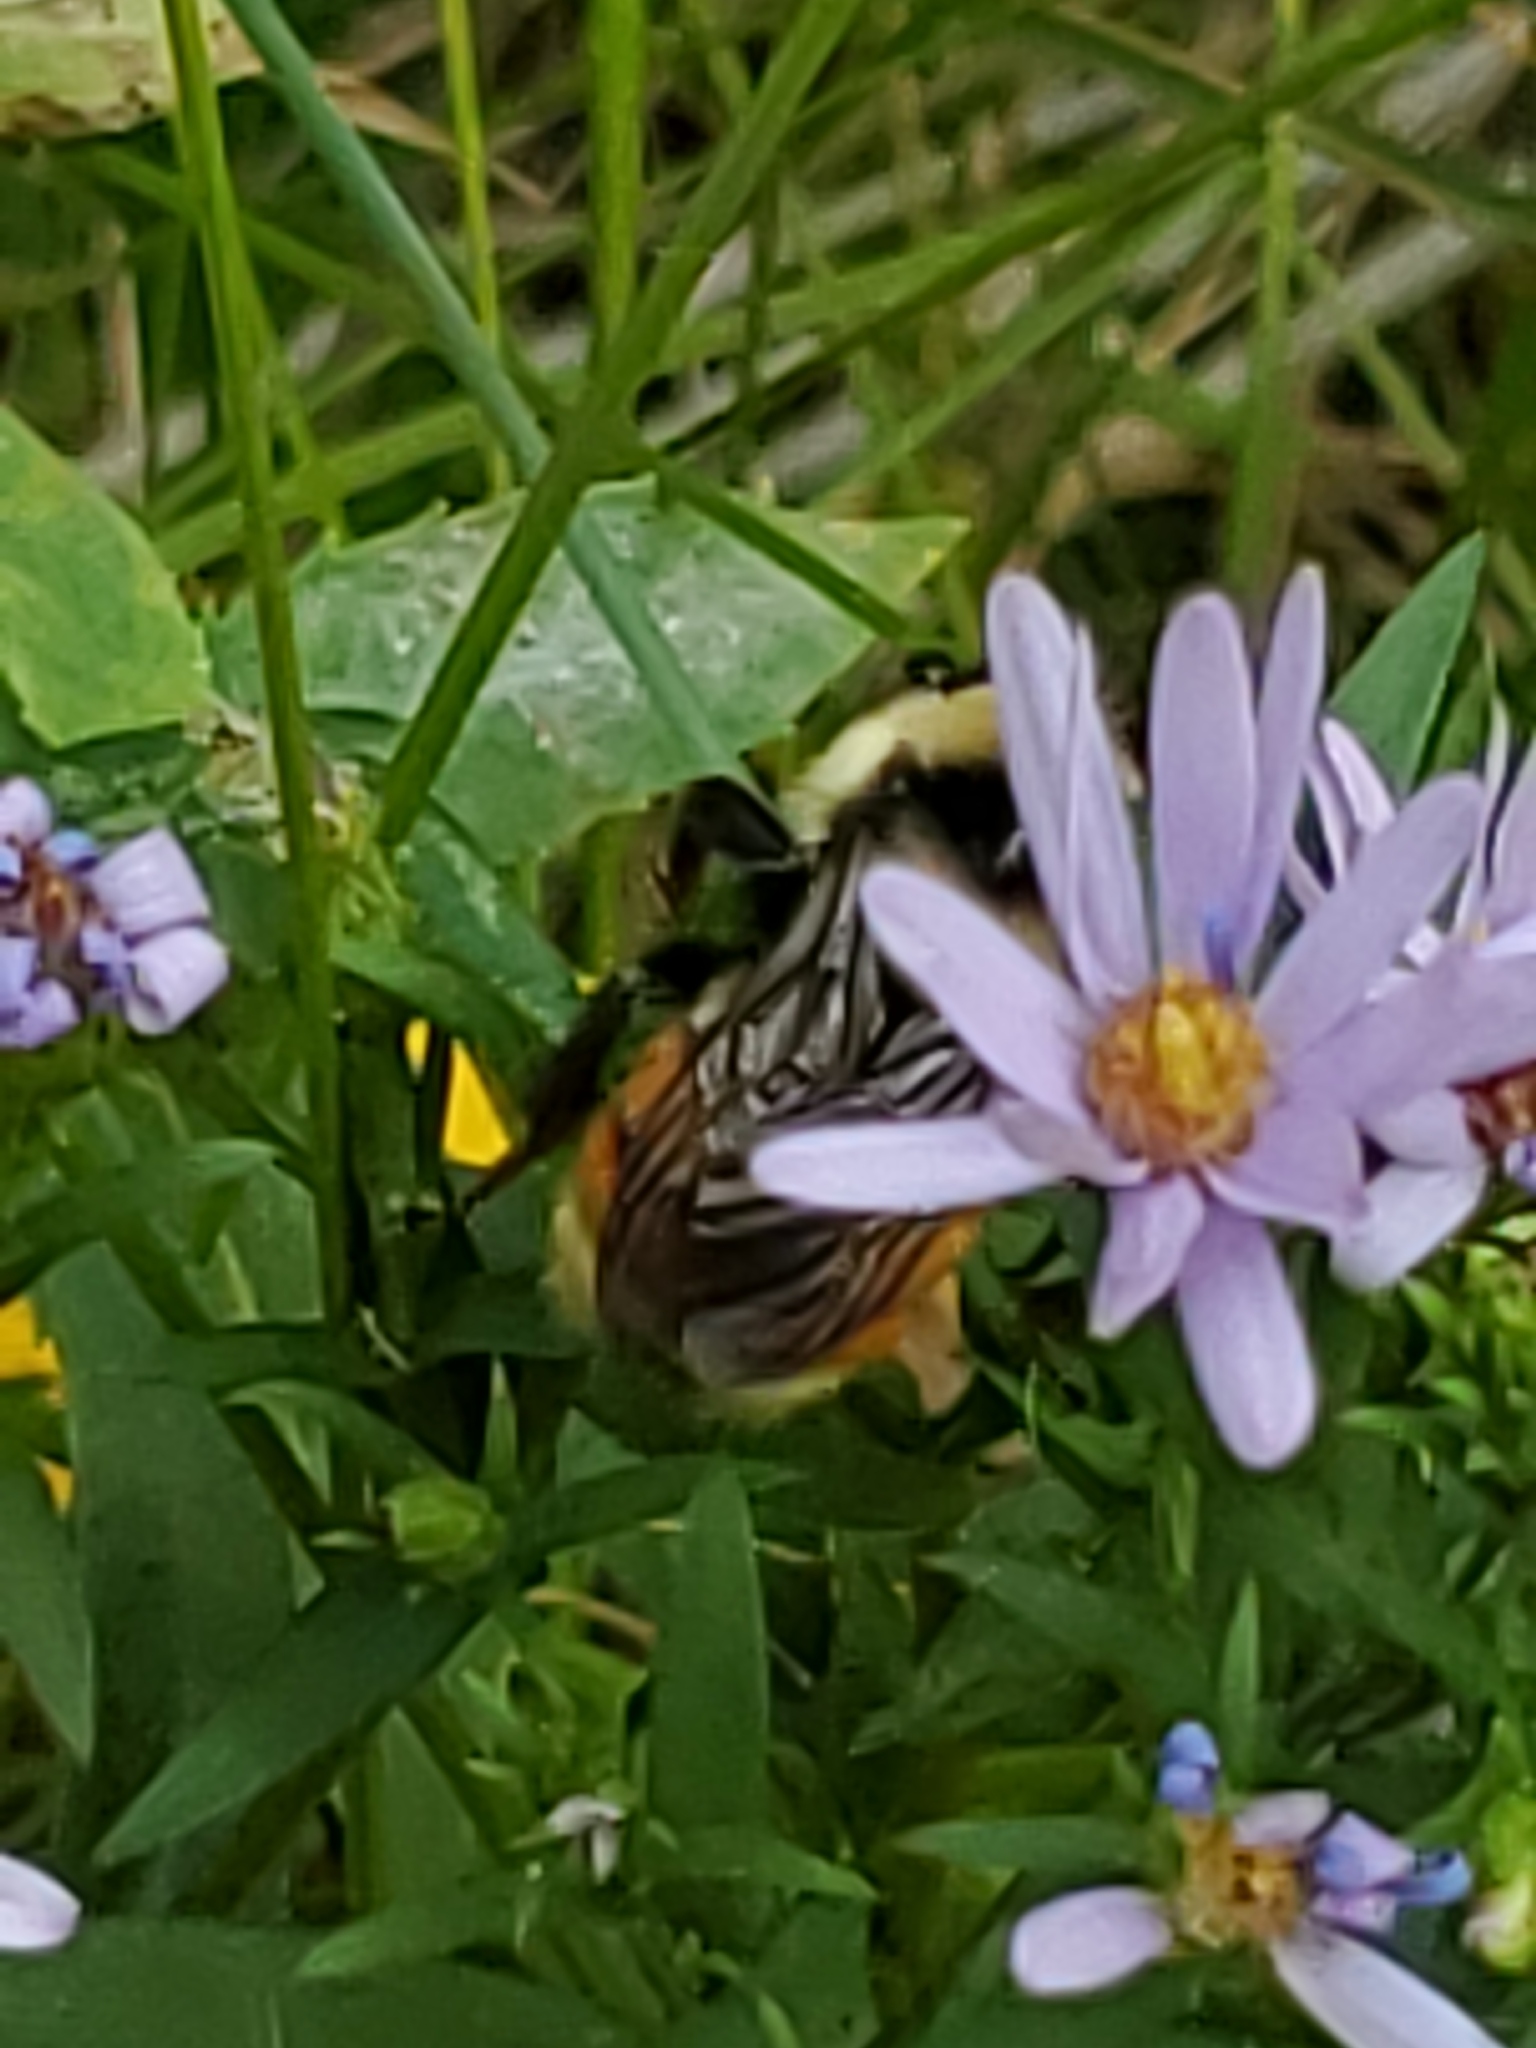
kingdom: Animalia
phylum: Arthropoda
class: Insecta
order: Hymenoptera
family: Apidae
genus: Bombus
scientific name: Bombus rufocinctus
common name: Red-belted bumble bee
